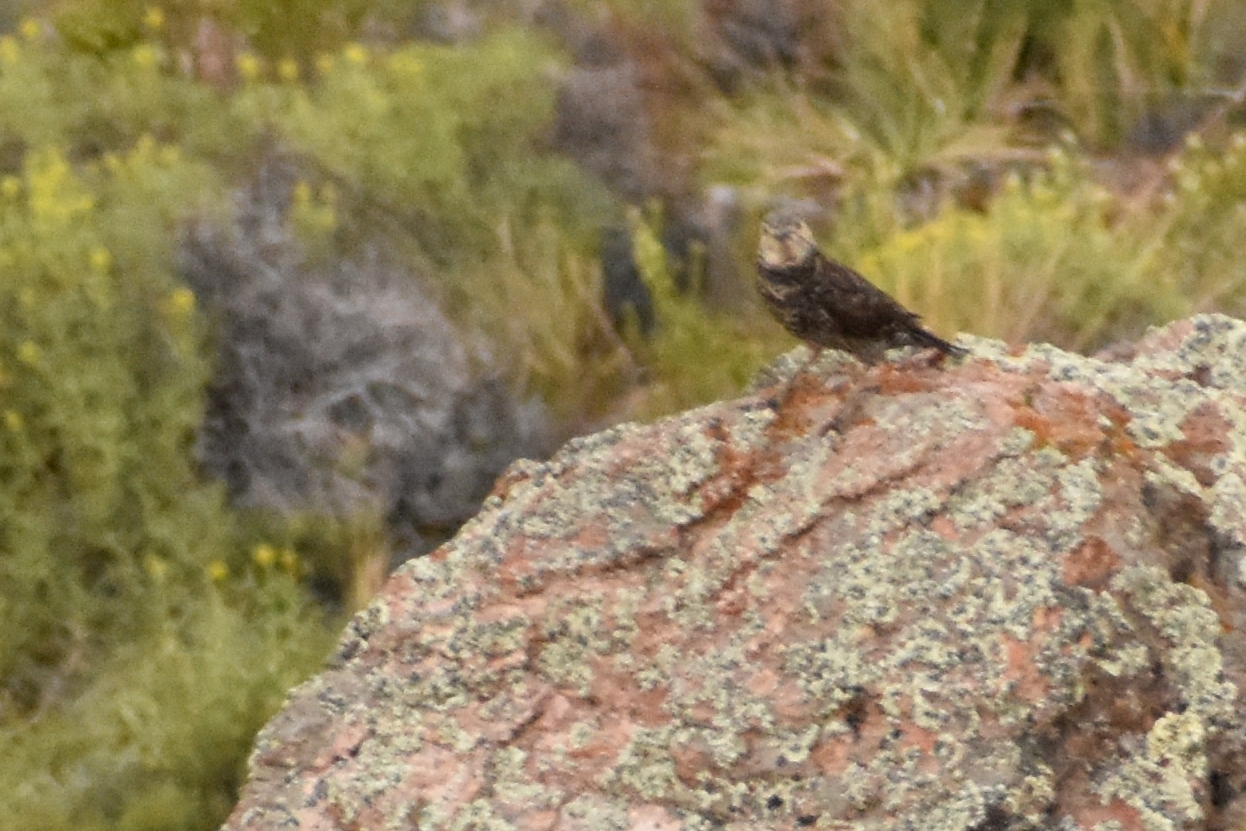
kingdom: Animalia
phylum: Chordata
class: Aves
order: Piciformes
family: Picidae
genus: Colaptes
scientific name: Colaptes pitius
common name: Chilean flicker
